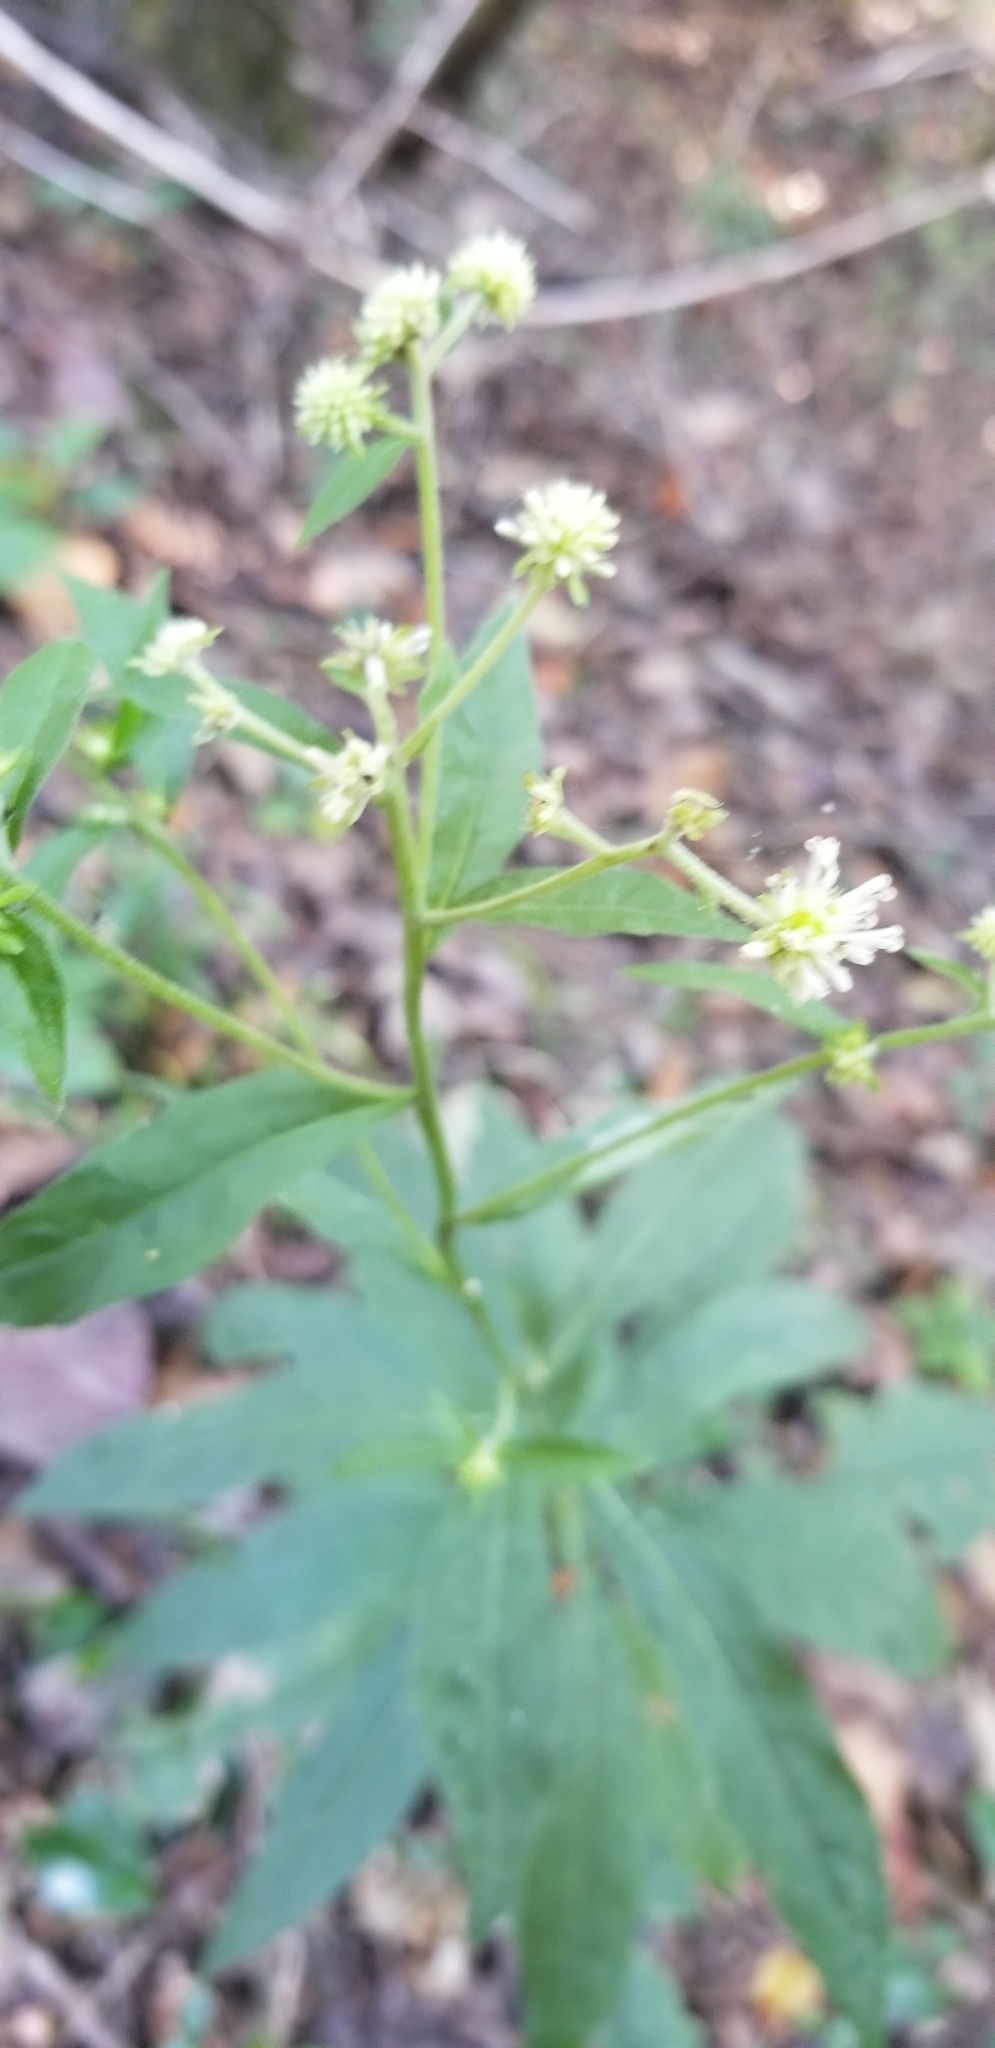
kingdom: Plantae
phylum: Tracheophyta
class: Magnoliopsida
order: Asterales
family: Asteraceae
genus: Verbesina
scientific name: Verbesina walteri
